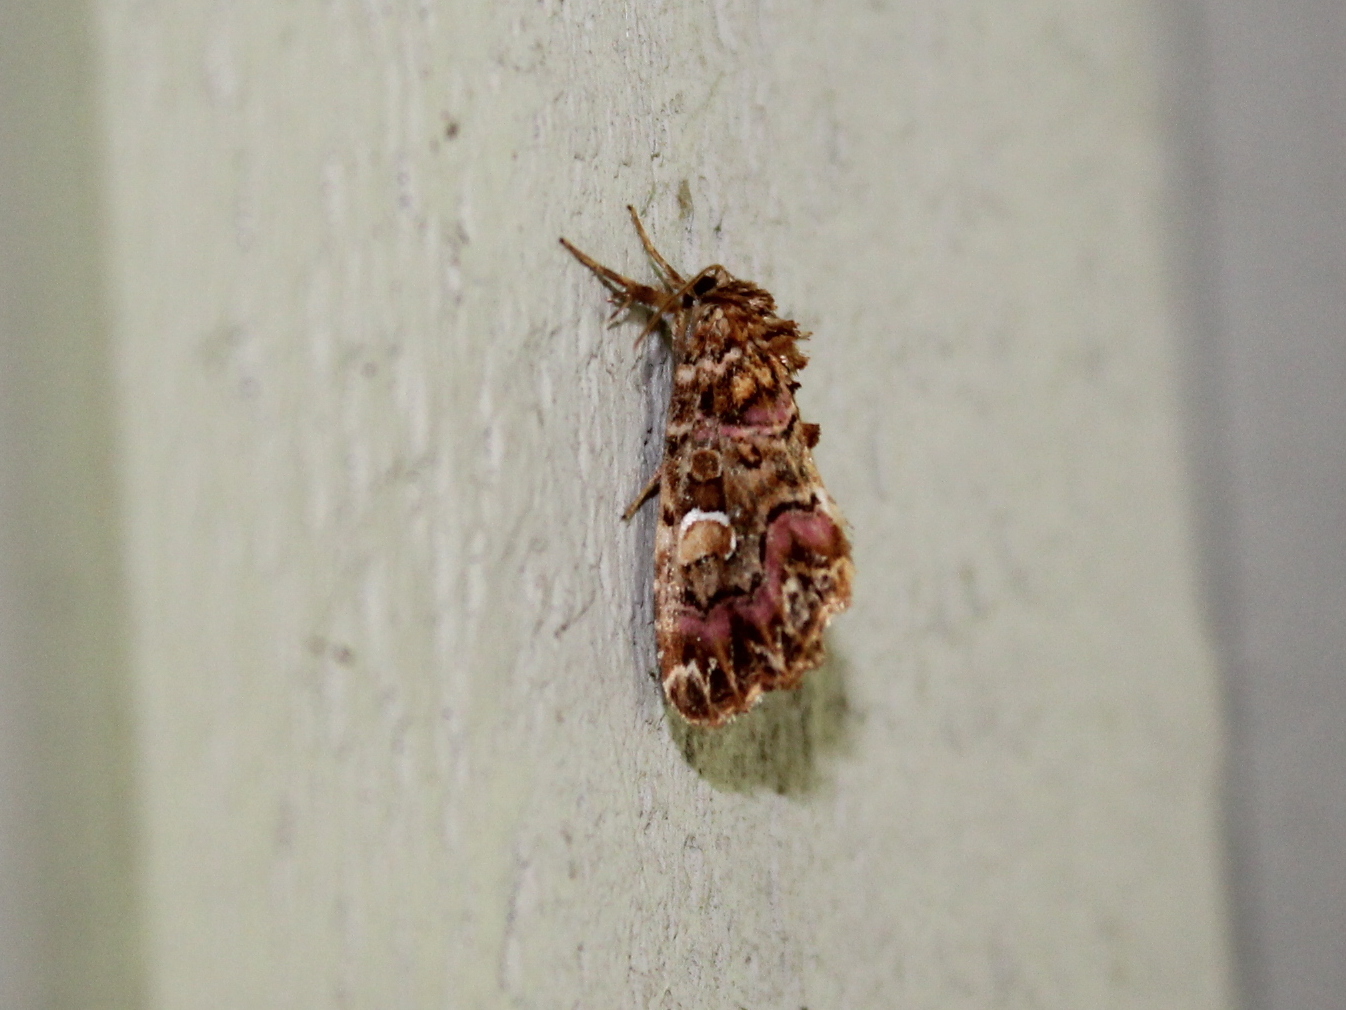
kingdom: Animalia
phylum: Arthropoda
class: Insecta
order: Lepidoptera
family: Noctuidae
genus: Callopistria
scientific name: Callopistria mollissima
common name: Pink-shaded fern moth
